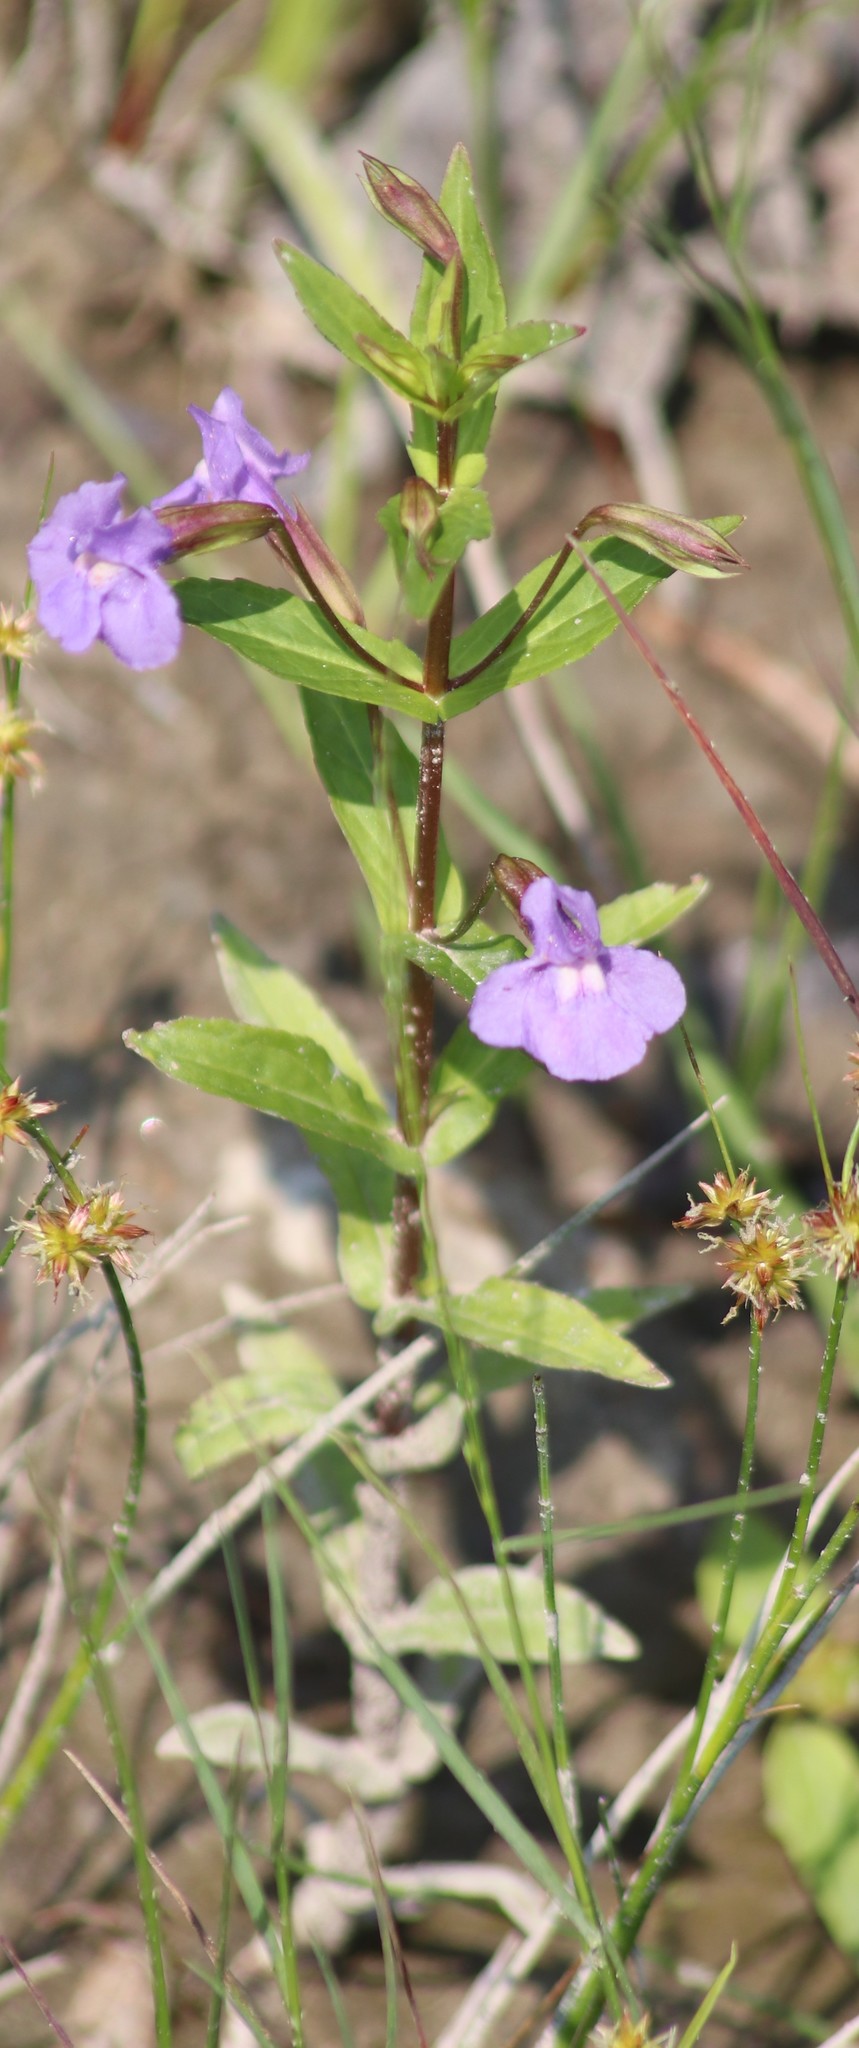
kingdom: Plantae
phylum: Tracheophyta
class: Magnoliopsida
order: Lamiales
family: Phrymaceae
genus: Mimulus
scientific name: Mimulus ringens
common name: Allegheny monkeyflower
